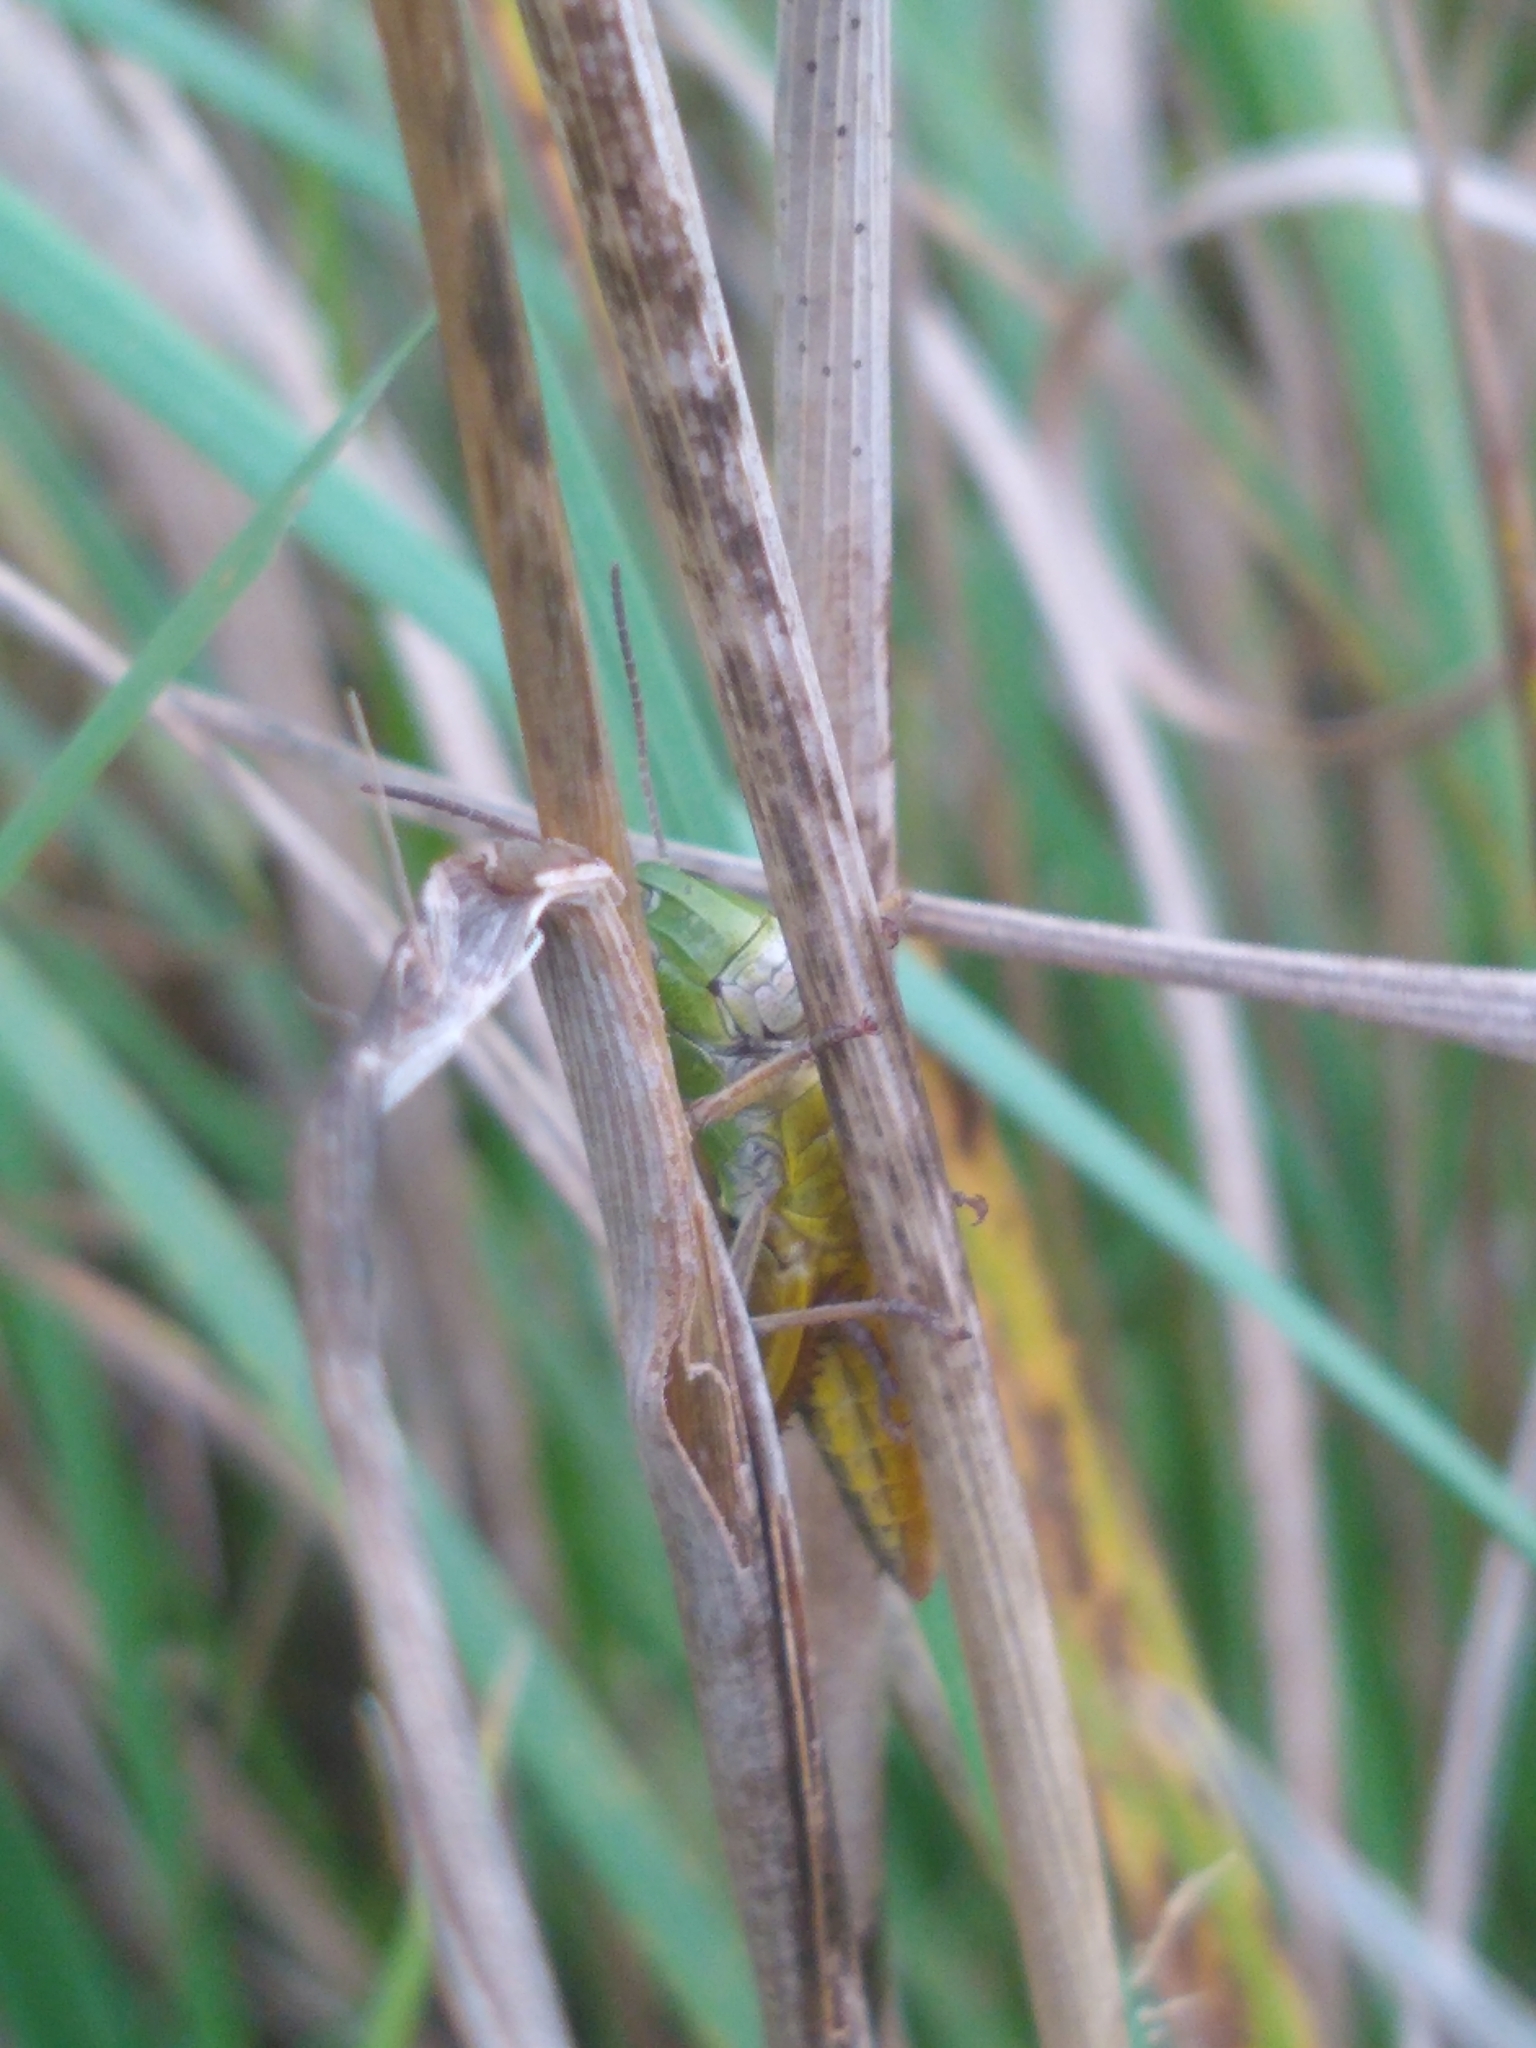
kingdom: Animalia
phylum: Arthropoda
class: Insecta
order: Orthoptera
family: Acrididae
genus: Pseudochorthippus
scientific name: Pseudochorthippus curtipennis
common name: Marsh meadow grasshopper
